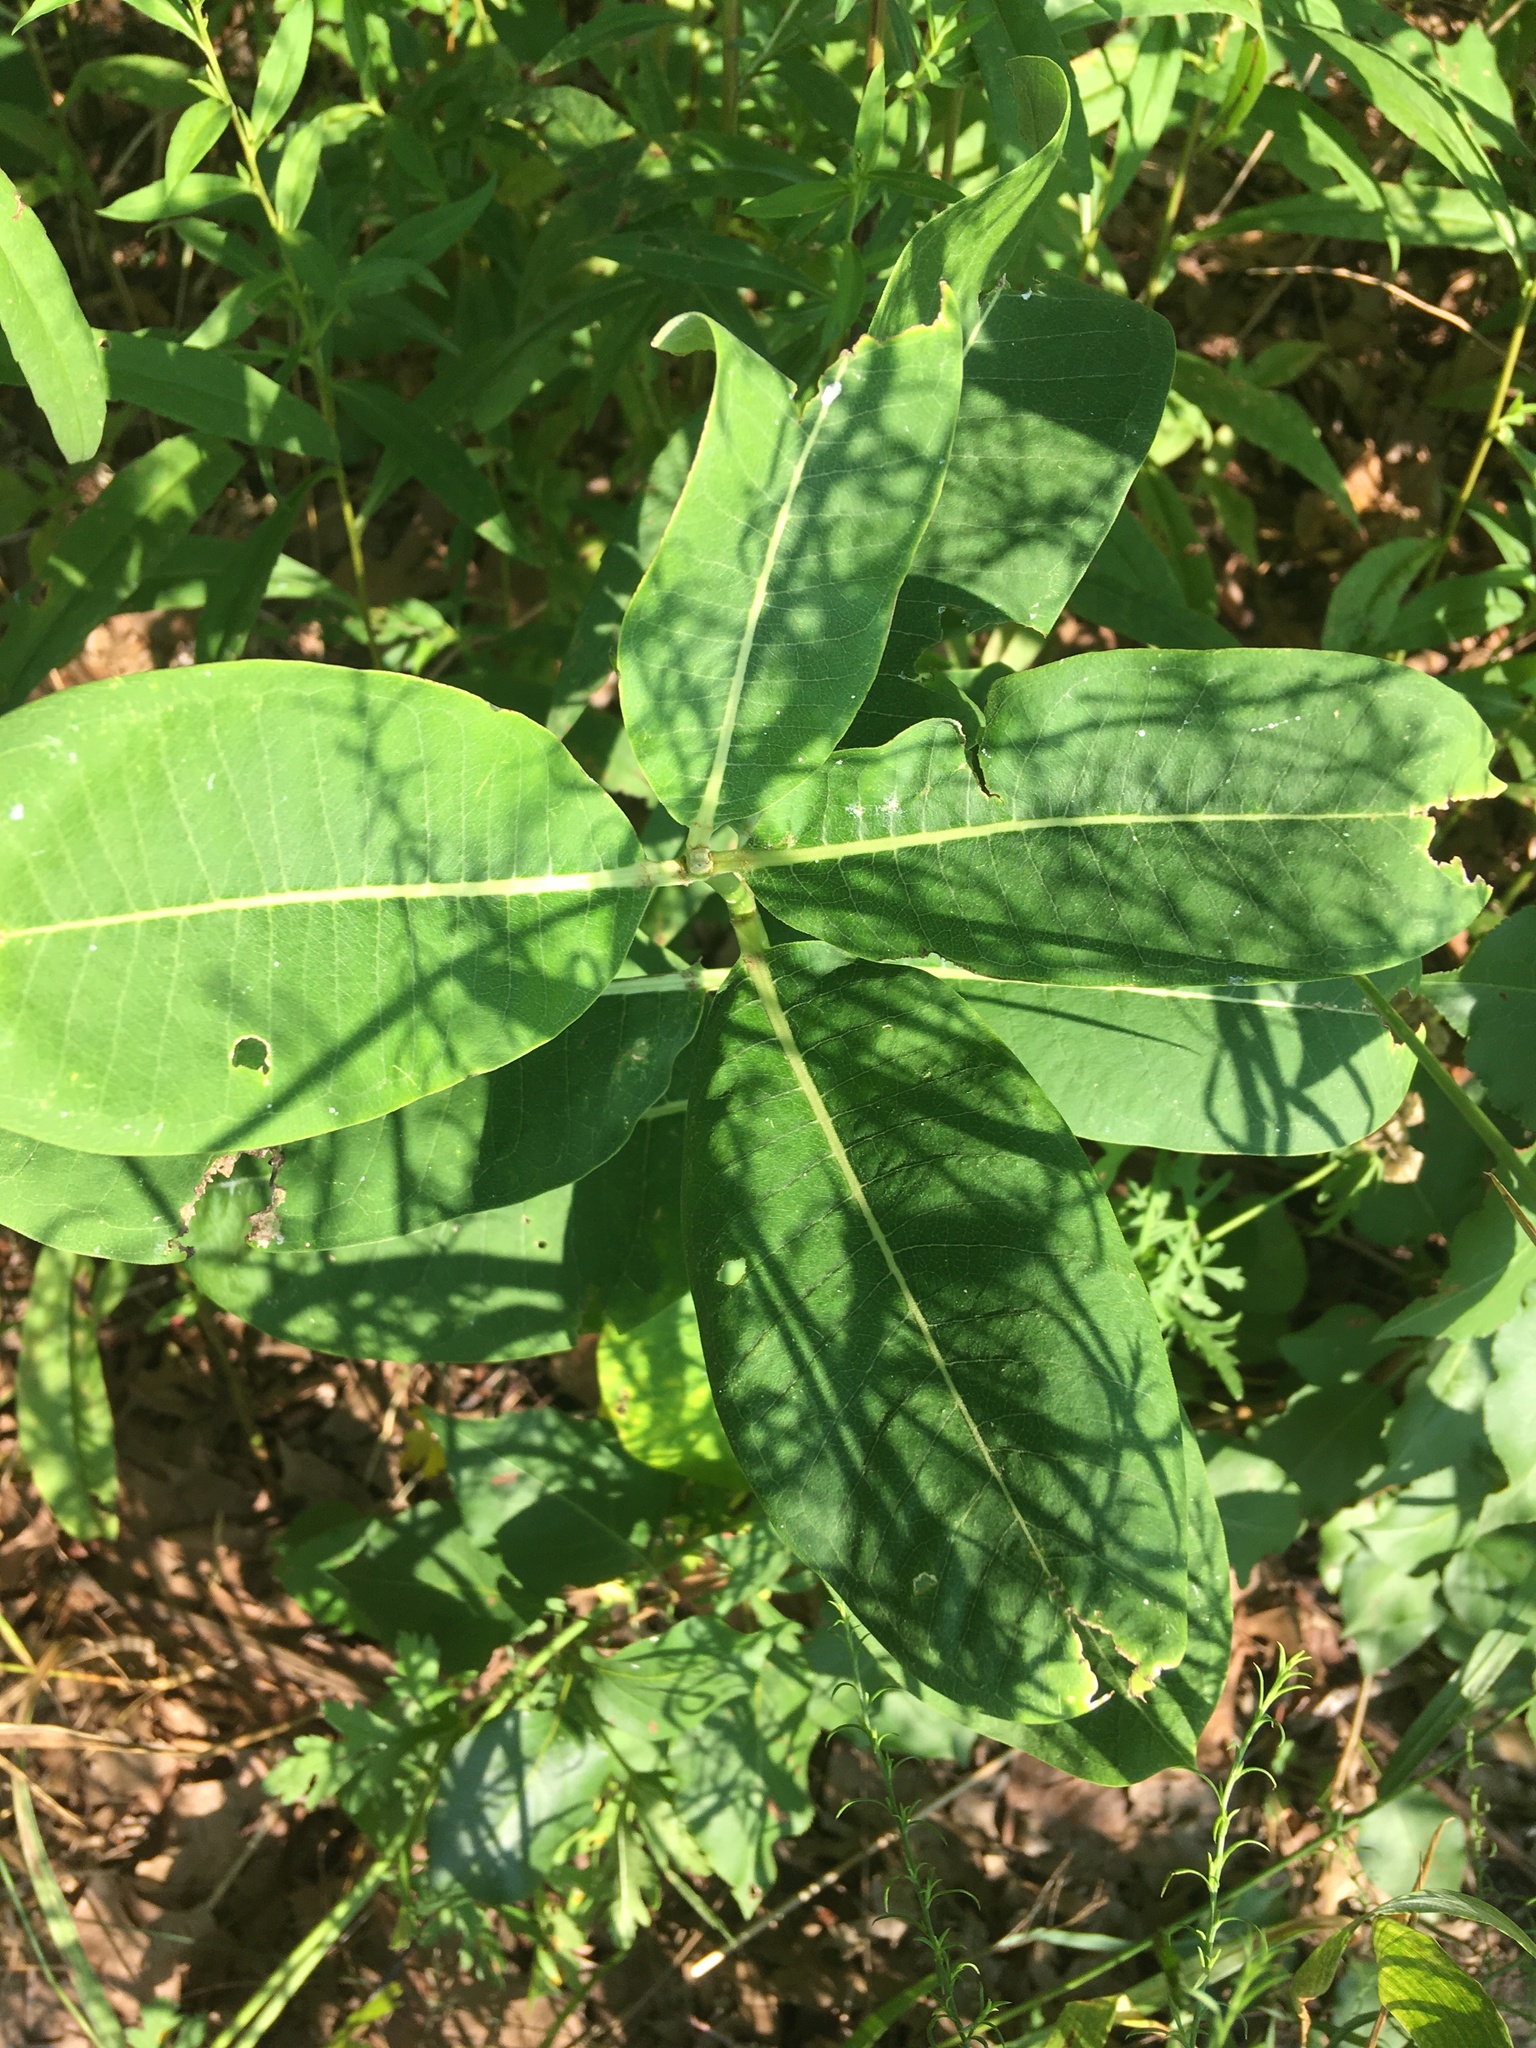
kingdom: Plantae
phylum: Tracheophyta
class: Magnoliopsida
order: Gentianales
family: Apocynaceae
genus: Asclepias
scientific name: Asclepias syriaca
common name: Common milkweed
